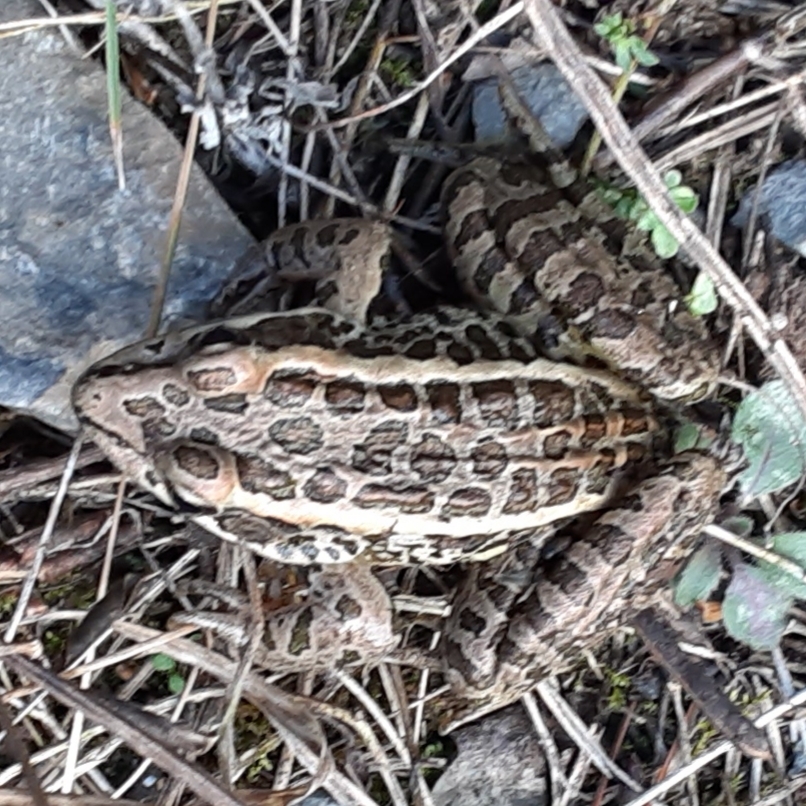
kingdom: Animalia
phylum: Chordata
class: Amphibia
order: Anura
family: Ranidae
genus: Lithobates
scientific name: Lithobates palustris
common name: Pickerel frog
